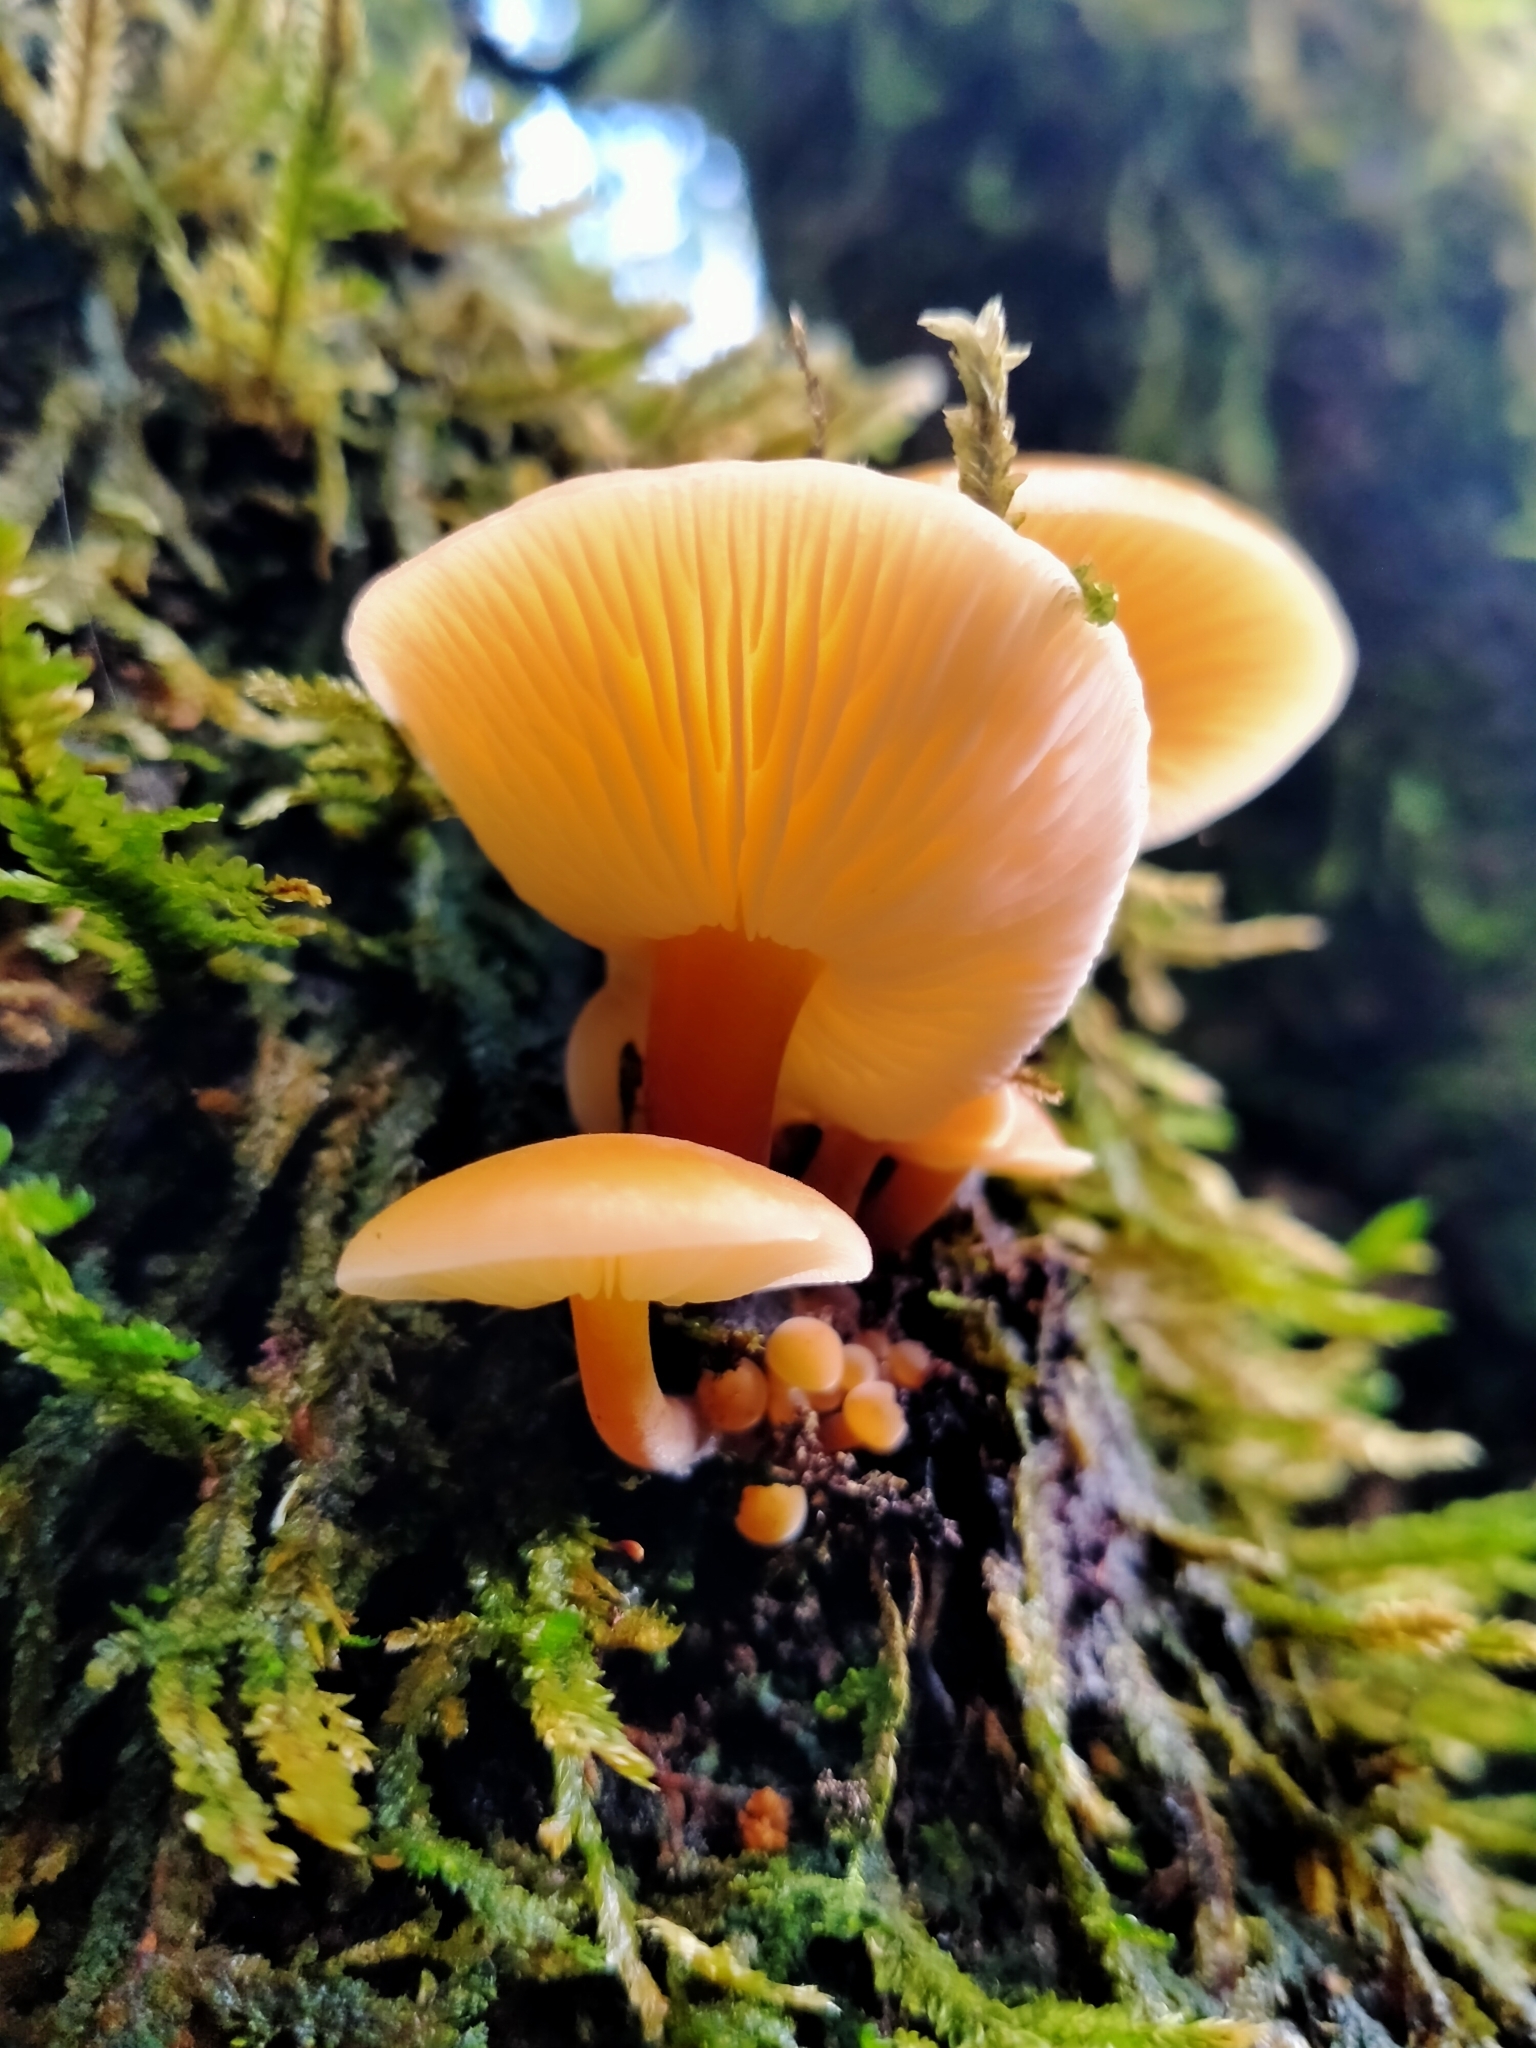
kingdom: Fungi
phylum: Basidiomycota
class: Agaricomycetes
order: Agaricales
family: Physalacriaceae
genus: Flammulina
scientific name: Flammulina velutipes
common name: Velvet shank
